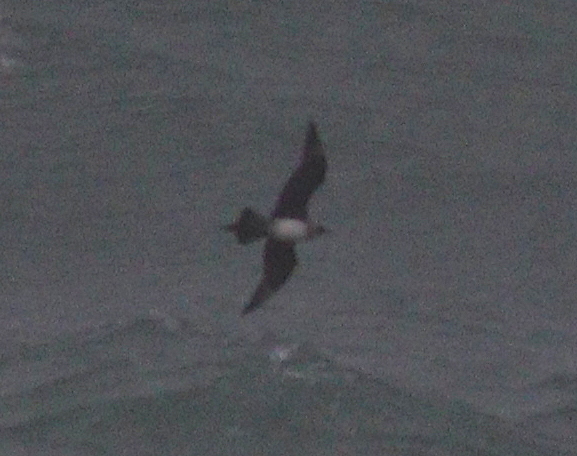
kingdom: Animalia
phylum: Chordata
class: Aves
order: Charadriiformes
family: Stercorariidae
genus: Stercorarius
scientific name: Stercorarius parasiticus
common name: Parasitic jaeger
